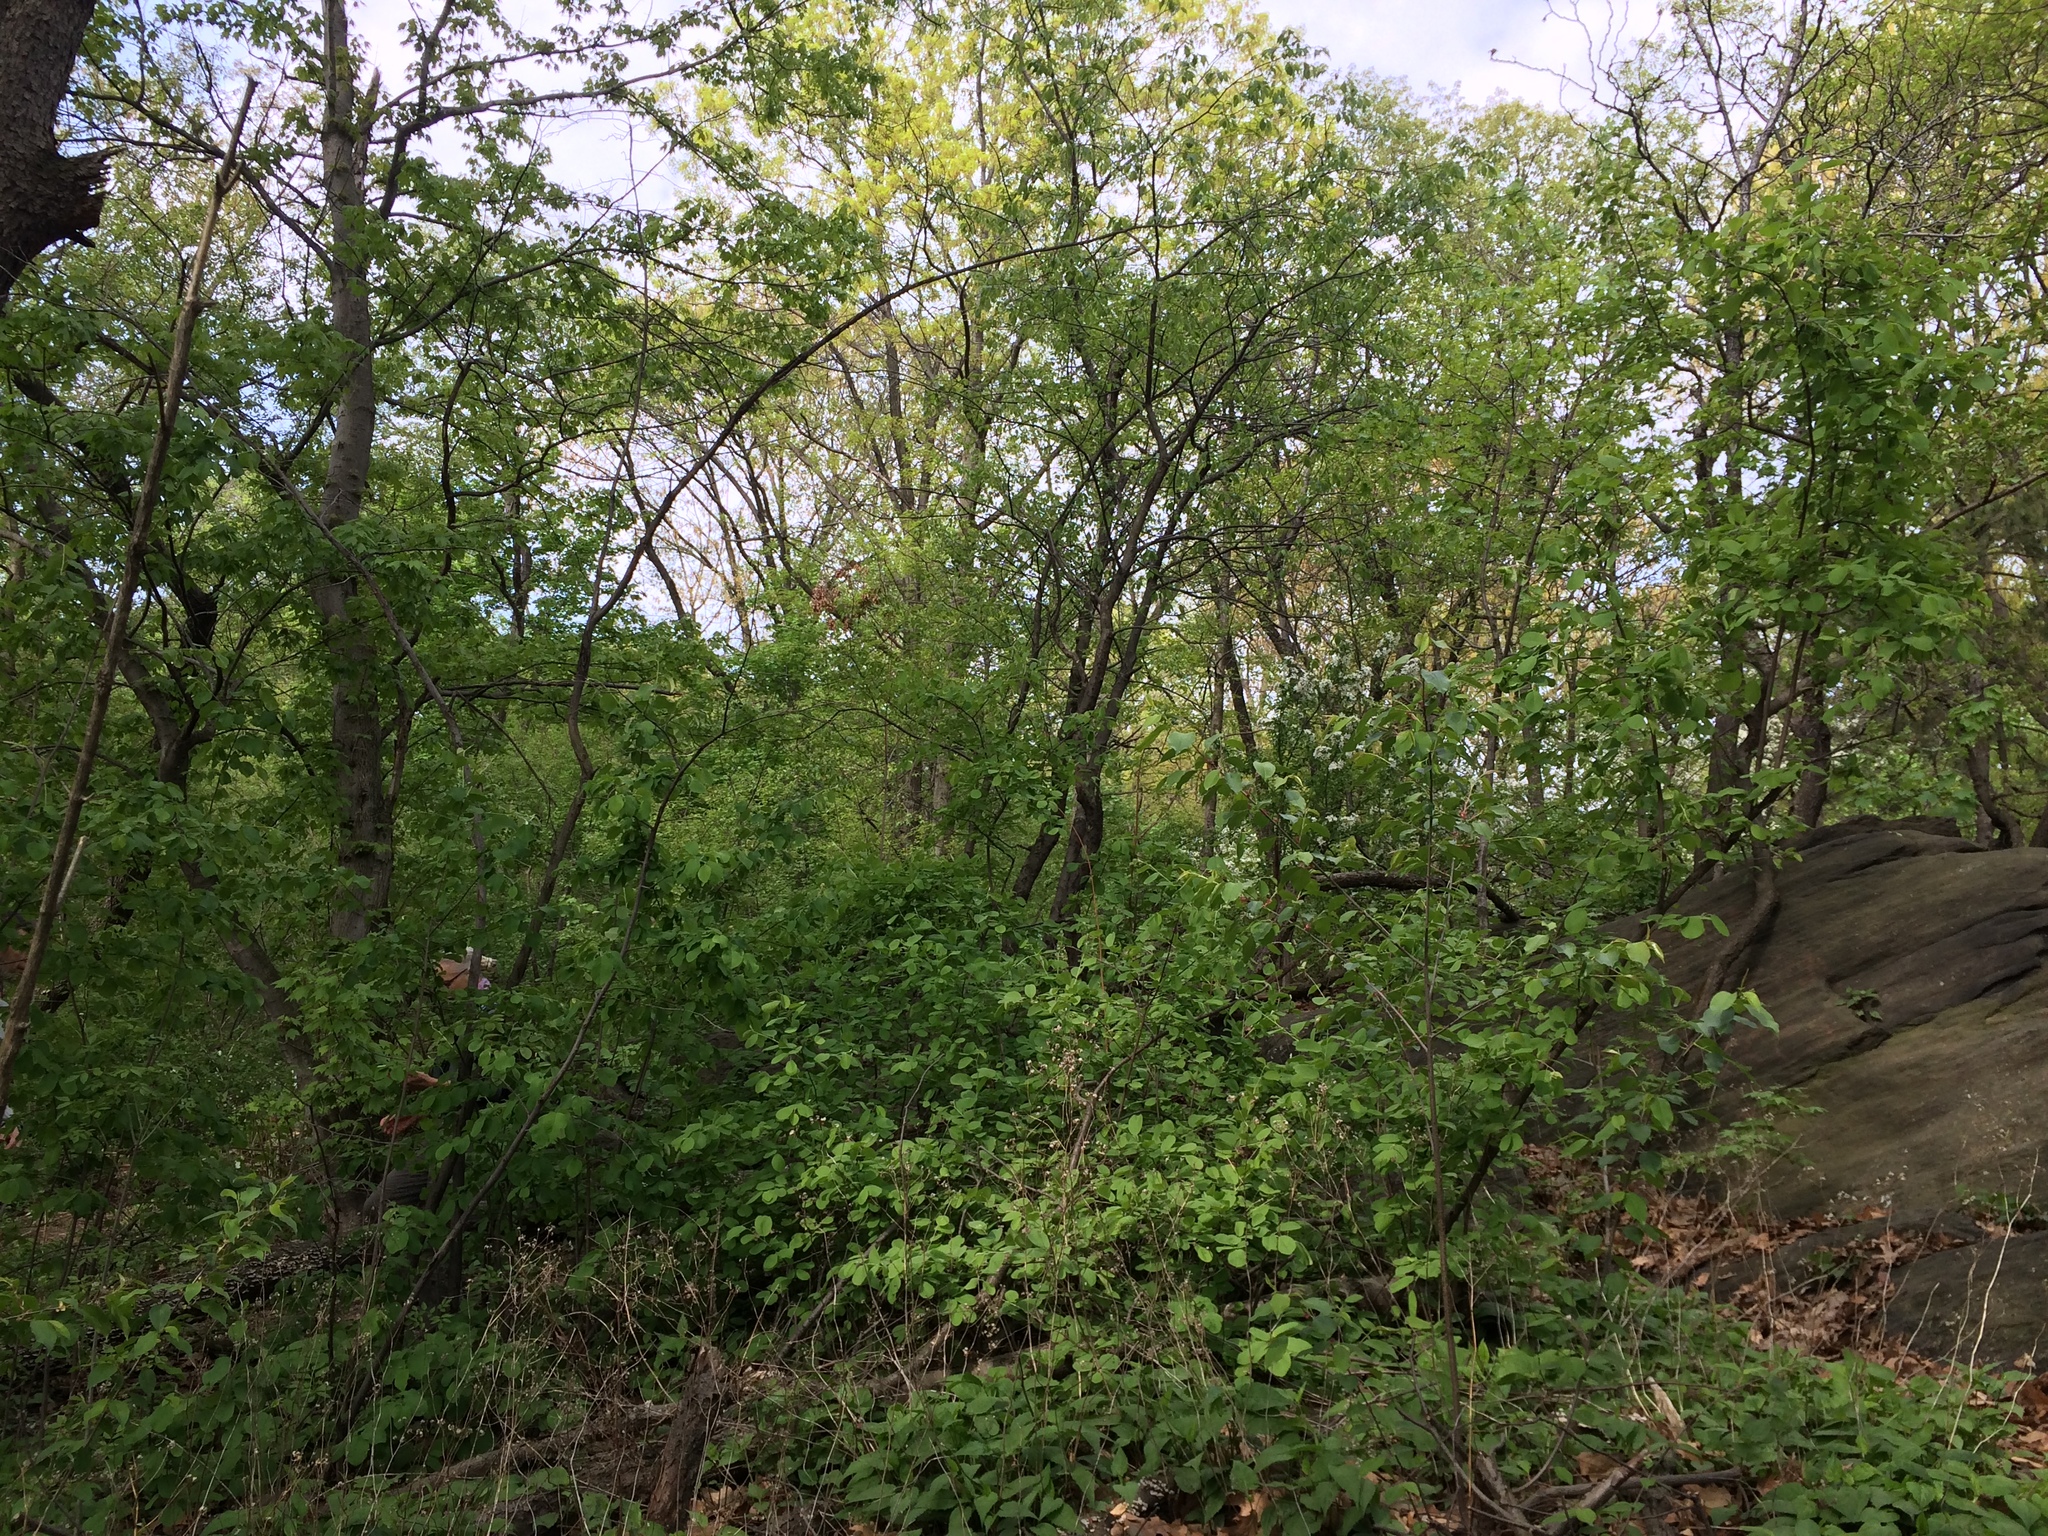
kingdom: Plantae
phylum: Tracheophyta
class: Magnoliopsida
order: Rosales
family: Rosaceae
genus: Amelanchier
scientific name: Amelanchier sanguinea
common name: Huron serviceberry
